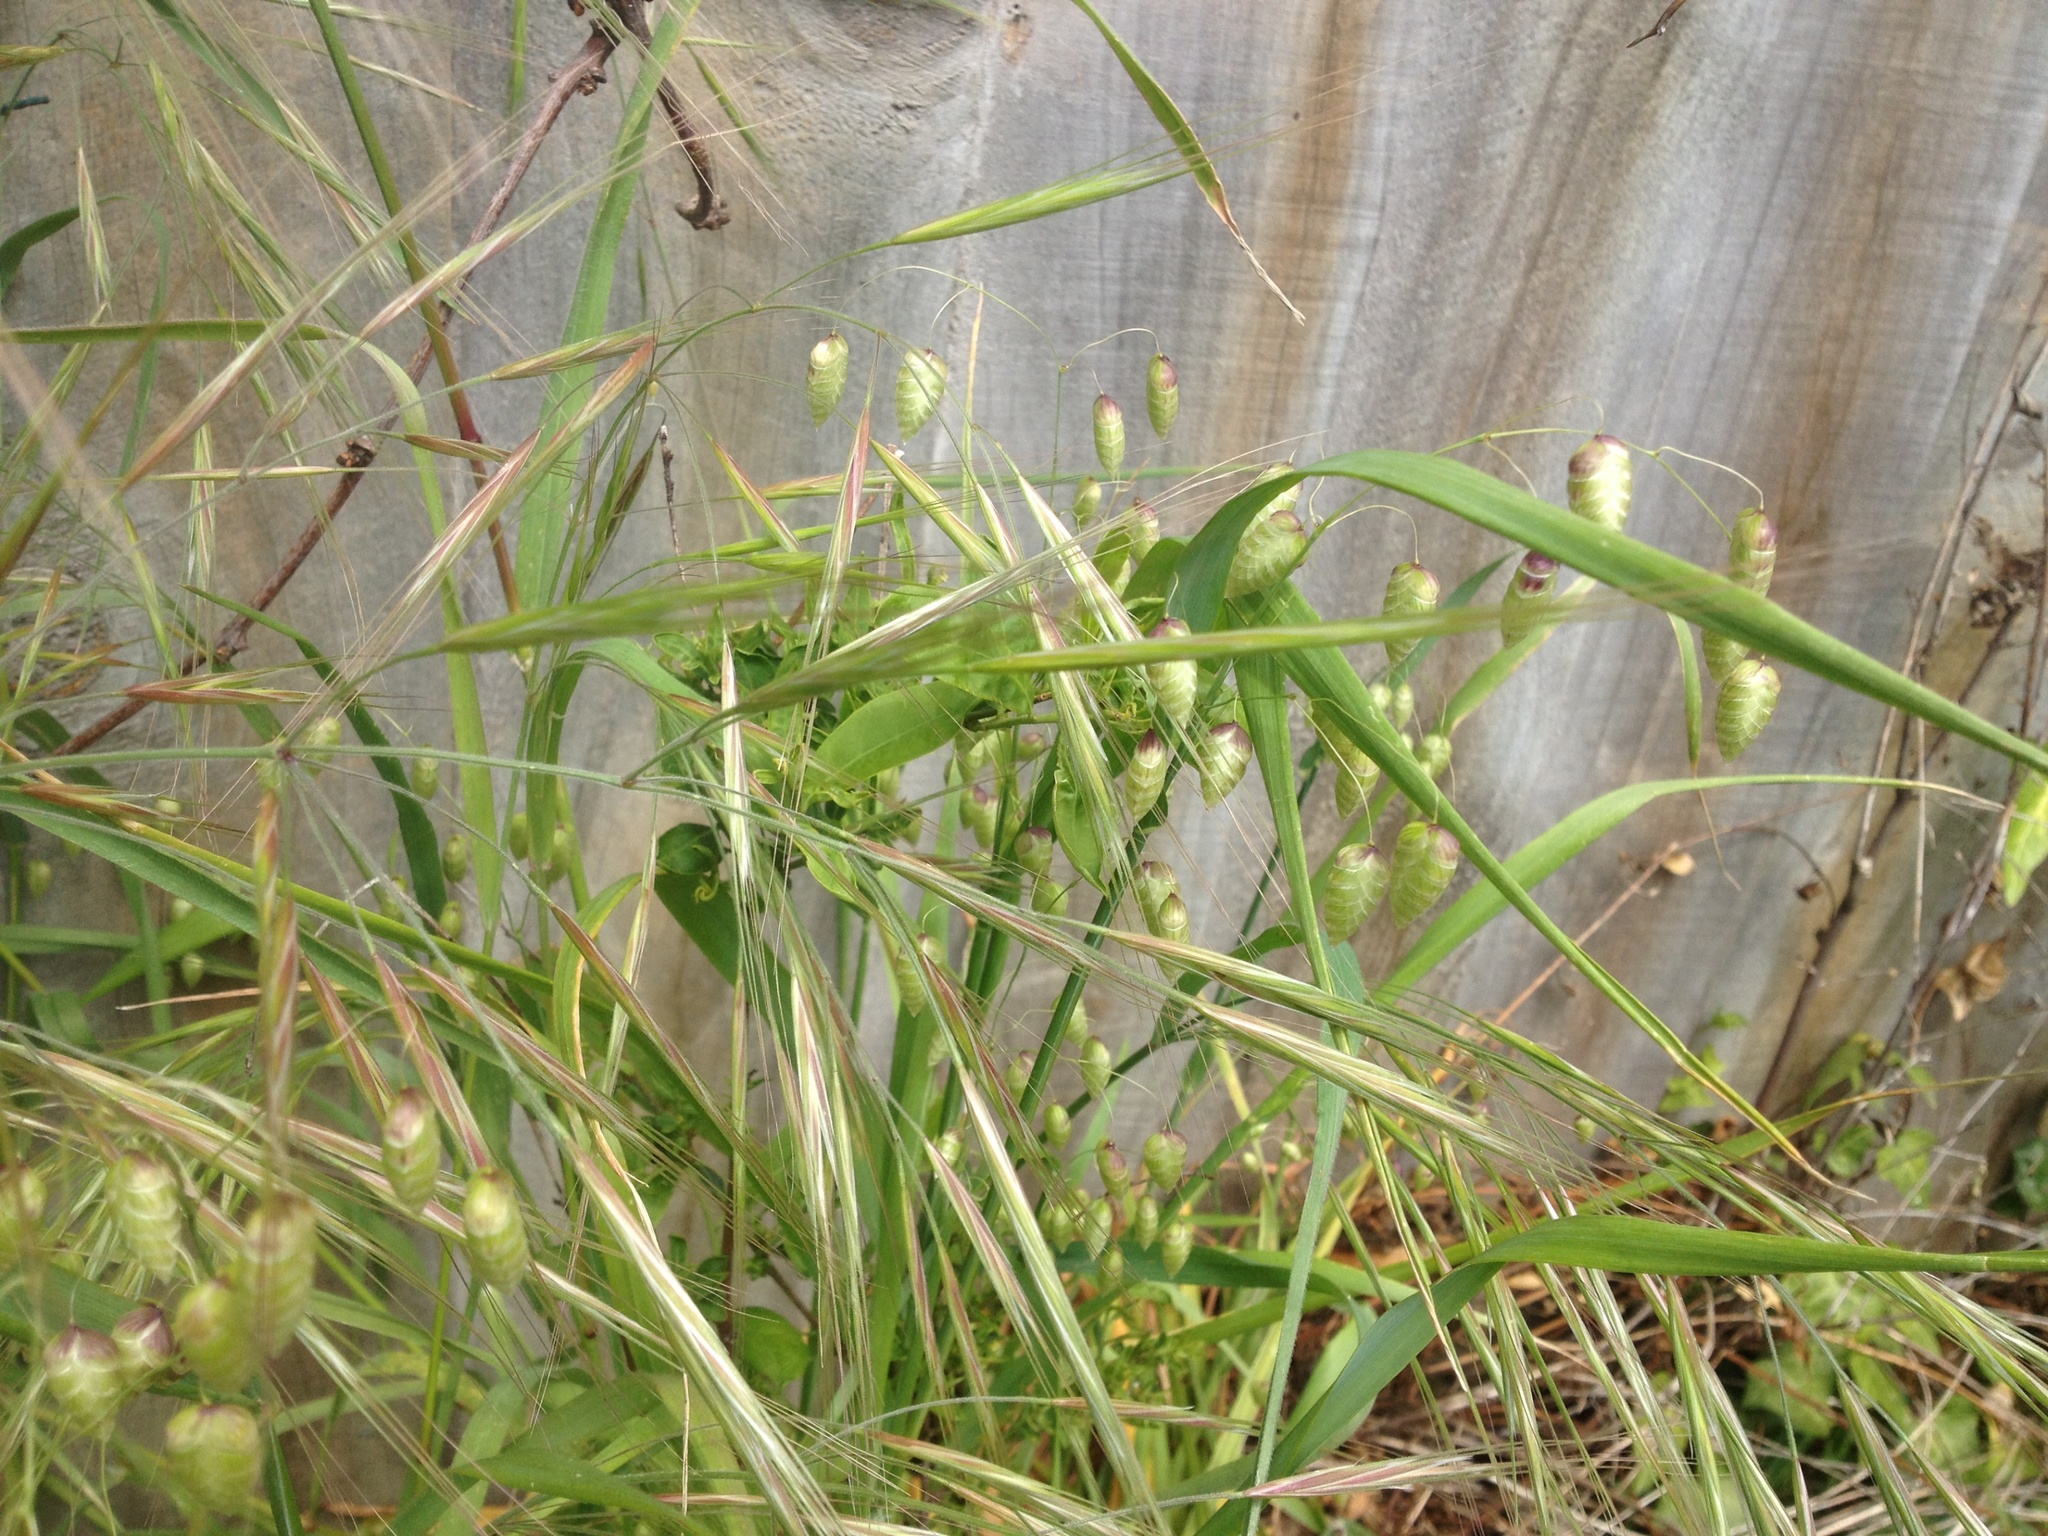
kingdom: Plantae
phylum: Tracheophyta
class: Liliopsida
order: Poales
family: Poaceae
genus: Briza
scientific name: Briza maxima
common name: Big quakinggrass
